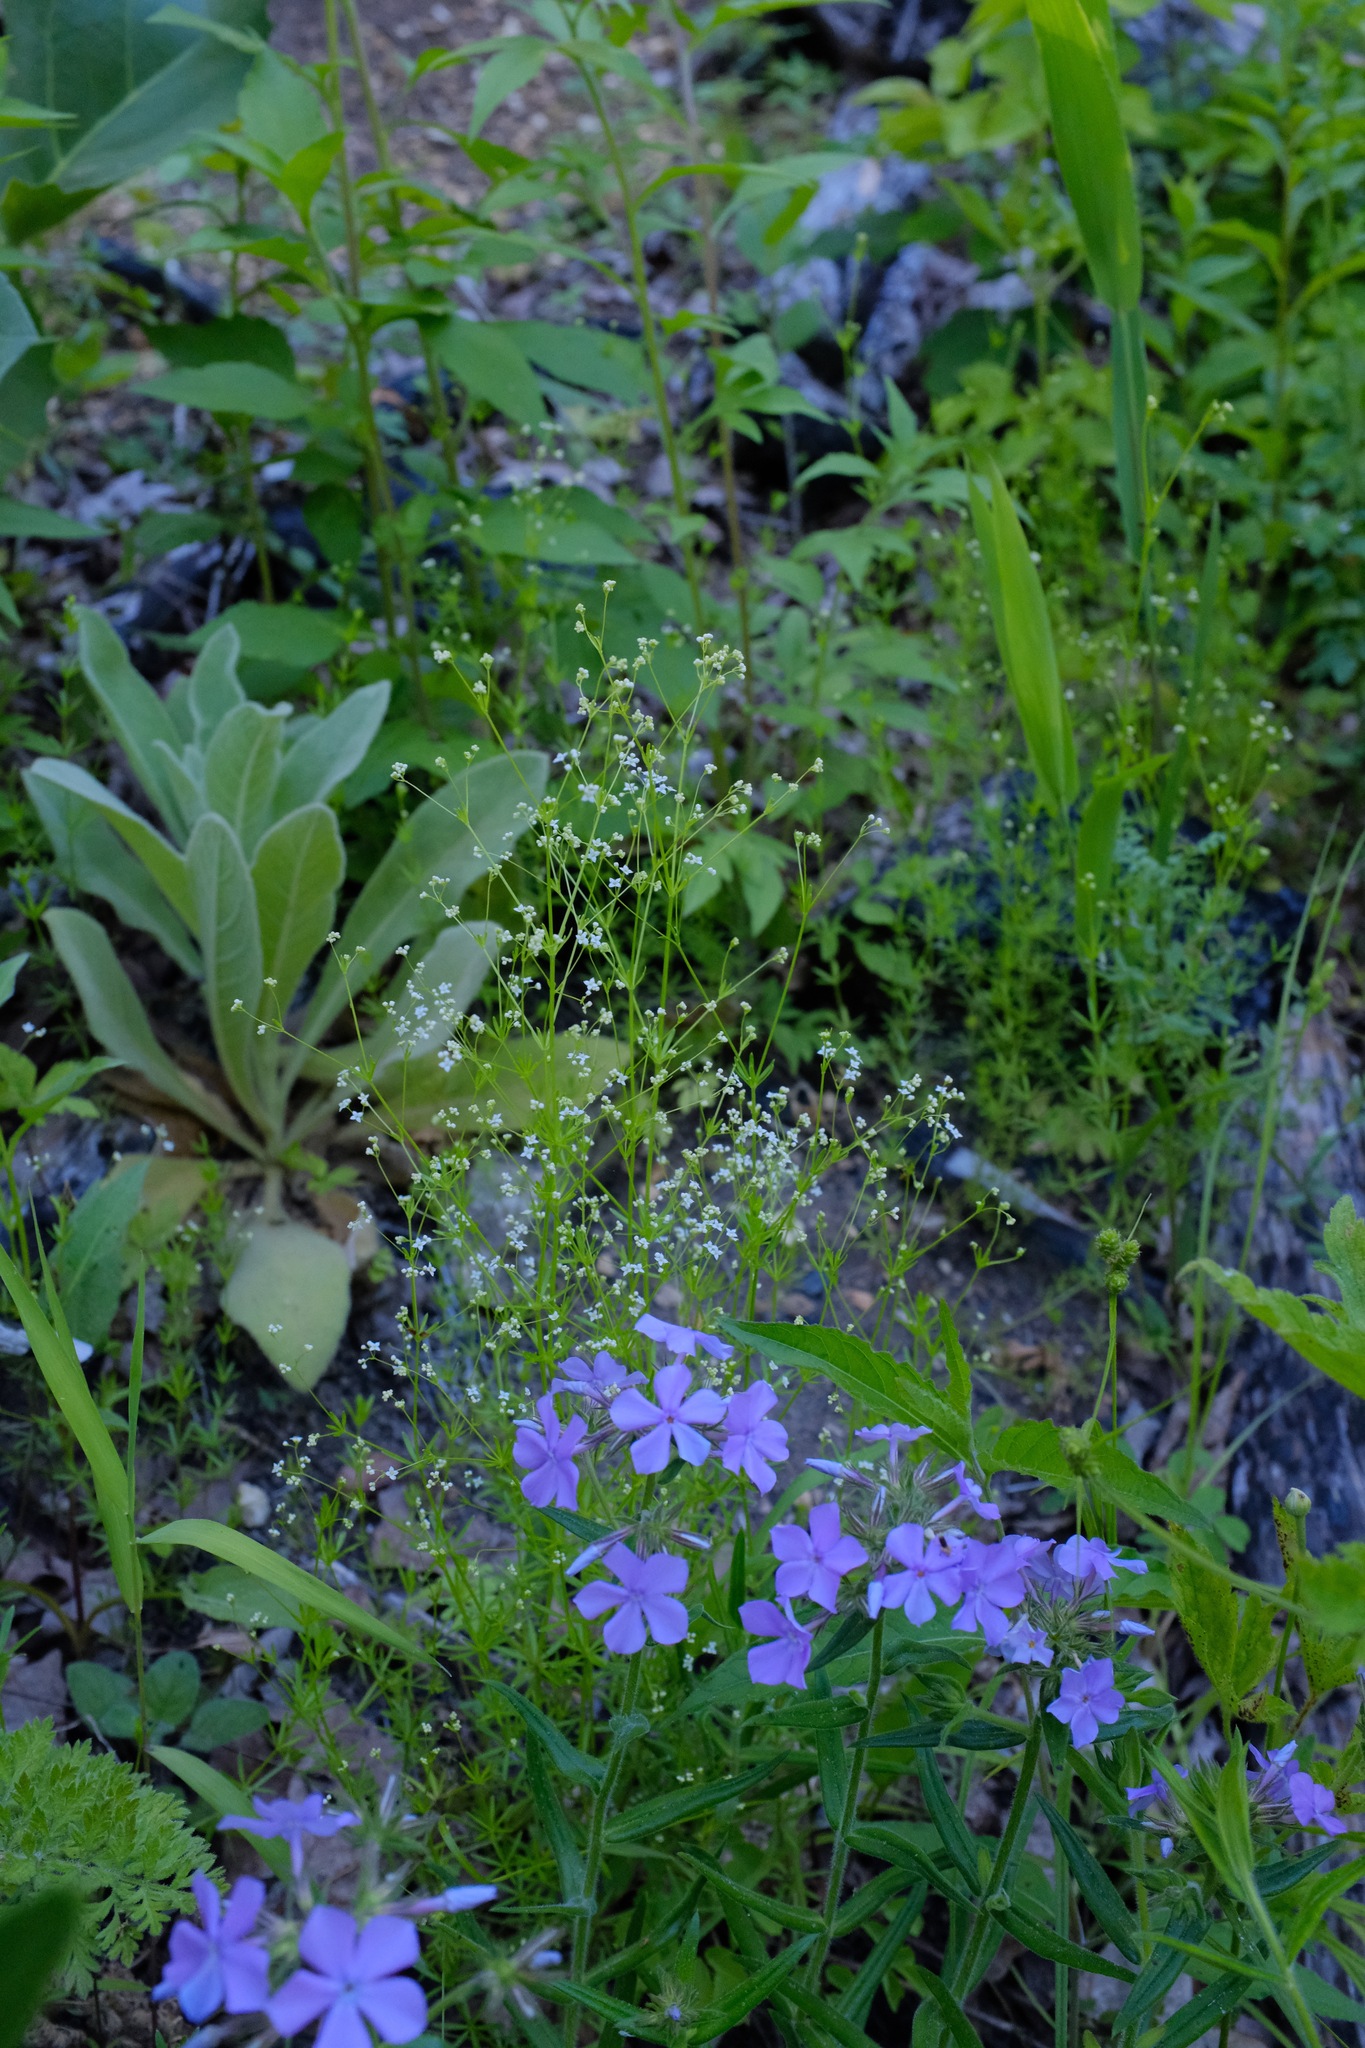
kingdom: Plantae
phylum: Tracheophyta
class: Magnoliopsida
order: Gentianales
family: Rubiaceae
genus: Galium
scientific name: Galium concinnum
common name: Shining bedstraw
